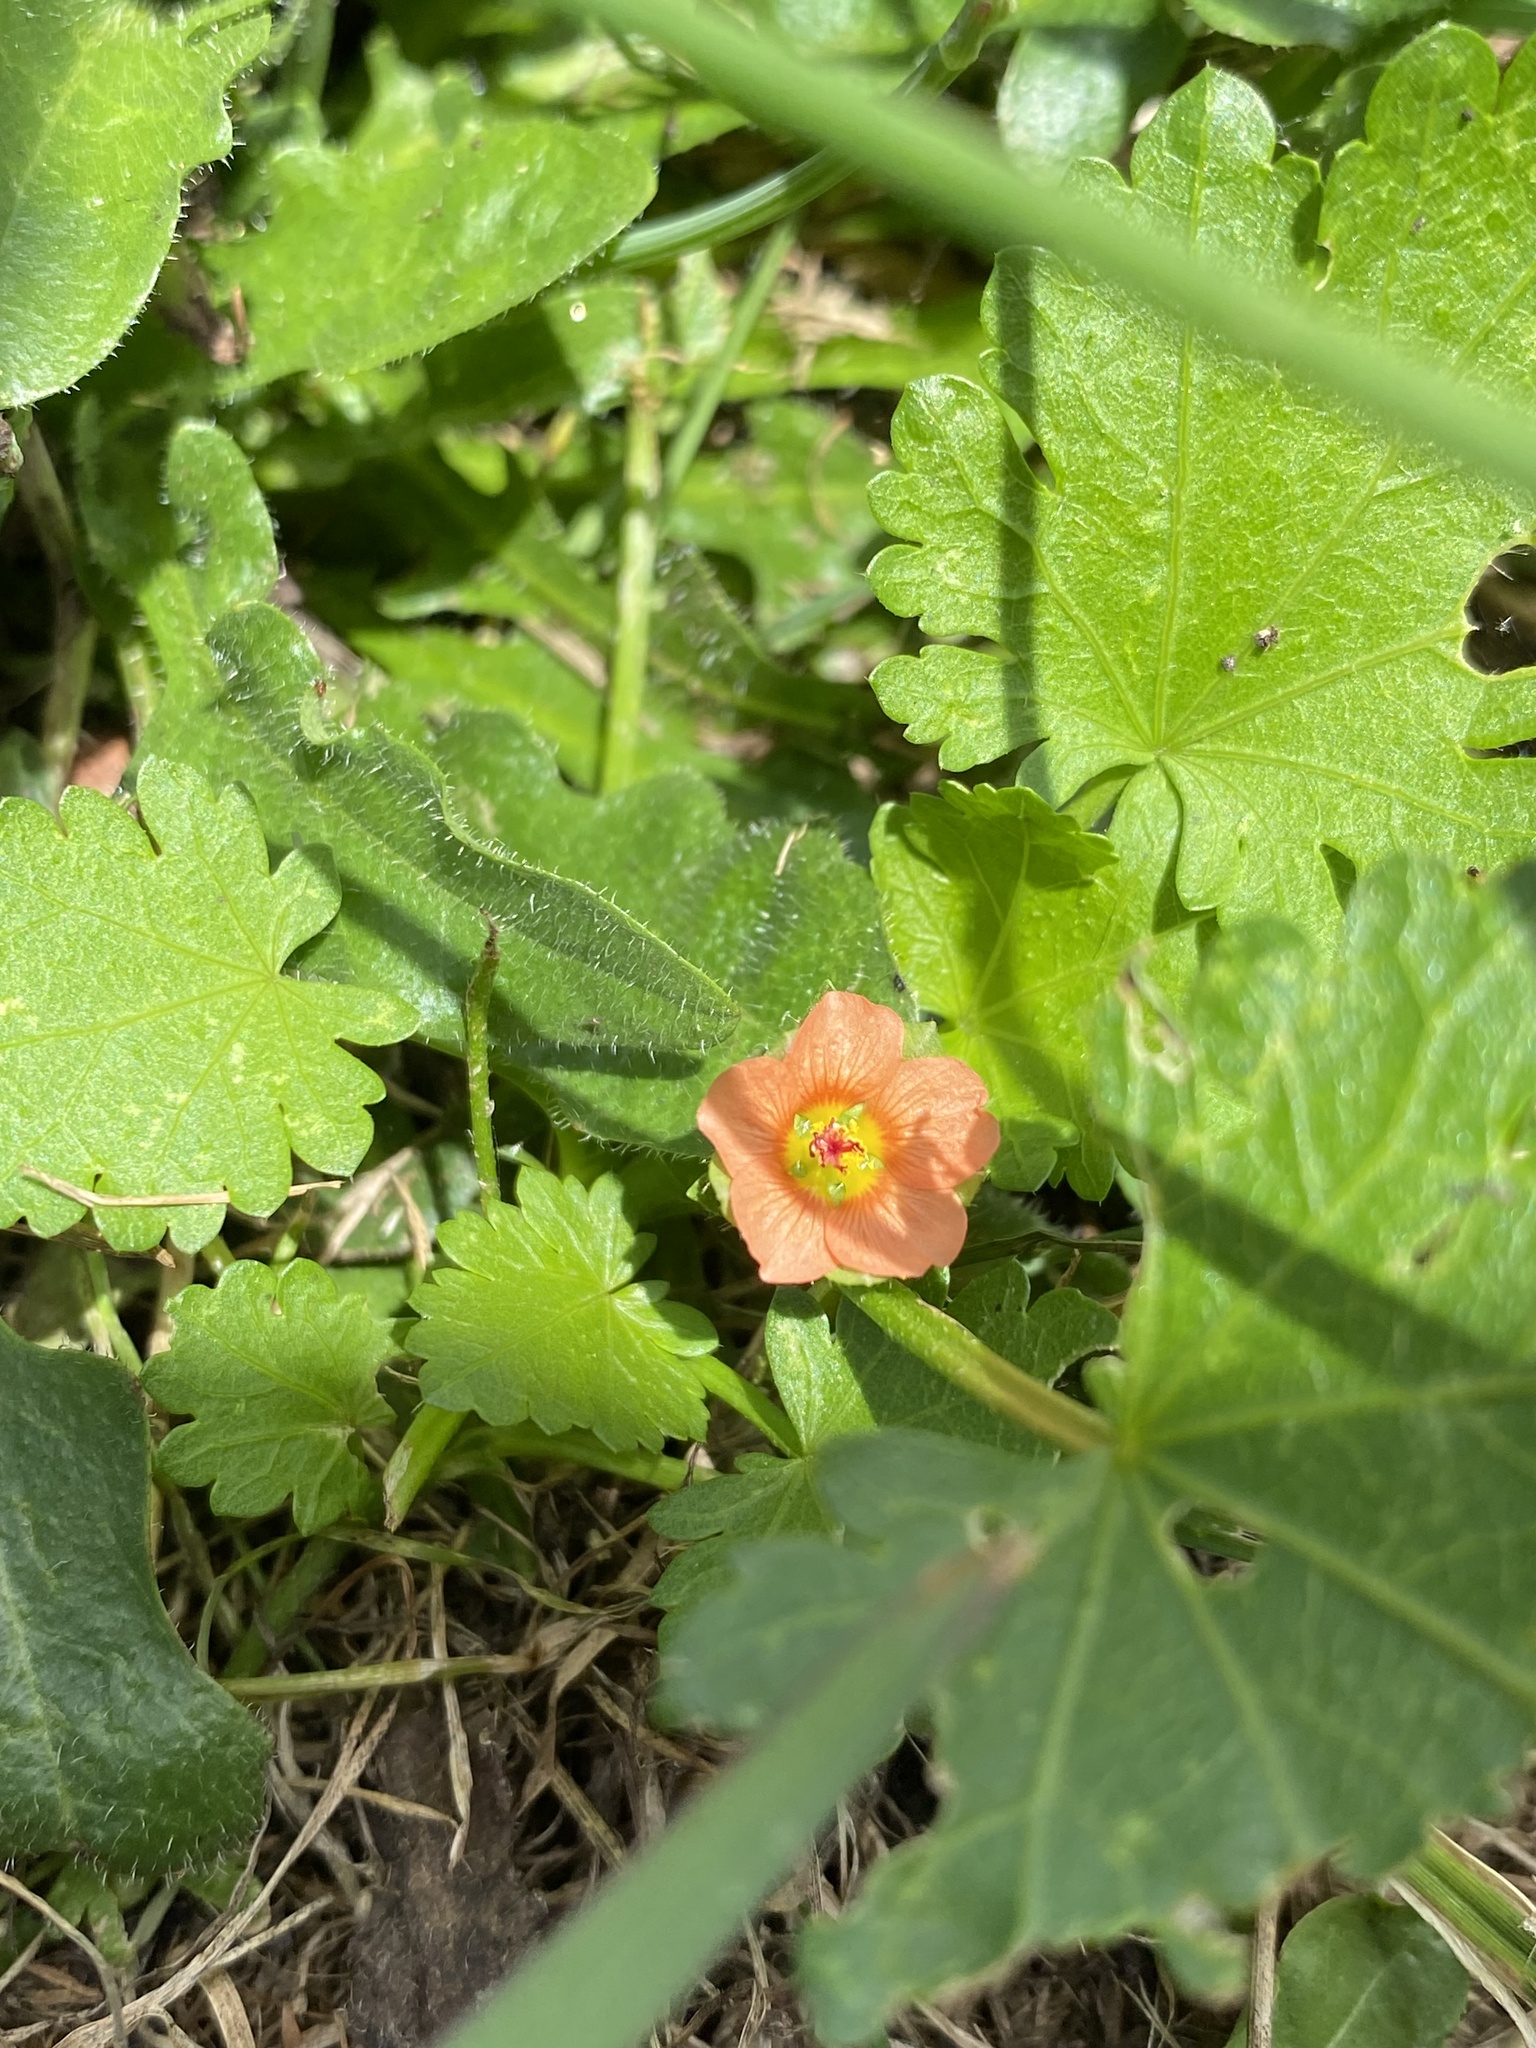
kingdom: Plantae
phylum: Tracheophyta
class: Magnoliopsida
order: Malvales
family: Malvaceae
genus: Modiola
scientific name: Modiola caroliniana
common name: Carolina bristlemallow
